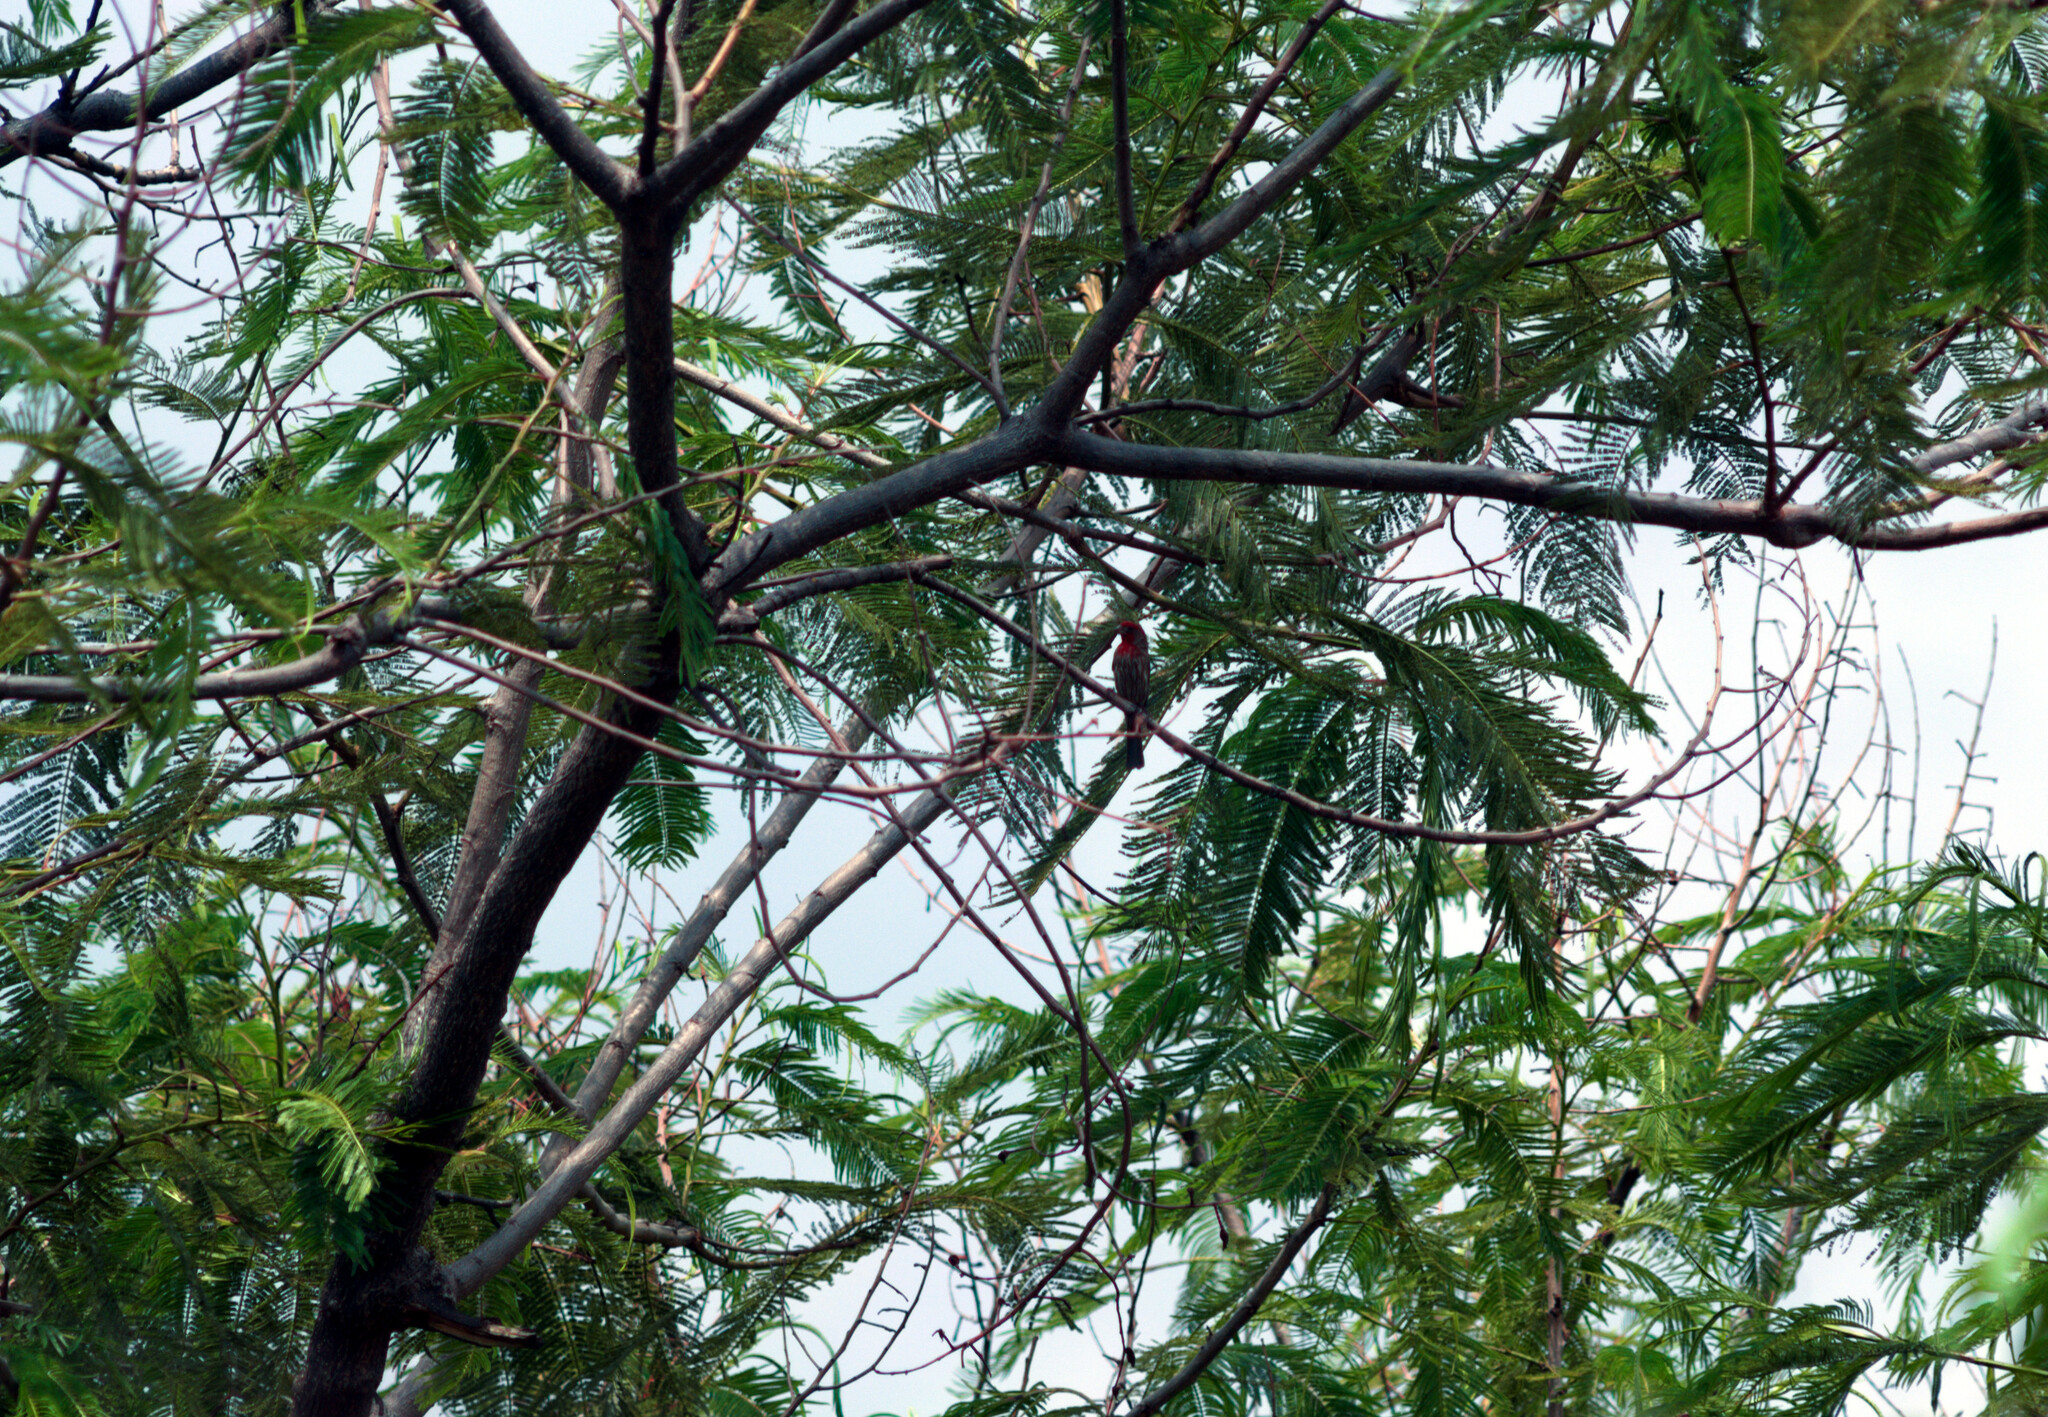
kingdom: Animalia
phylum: Chordata
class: Aves
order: Passeriformes
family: Fringillidae
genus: Haemorhous
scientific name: Haemorhous mexicanus
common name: House finch
